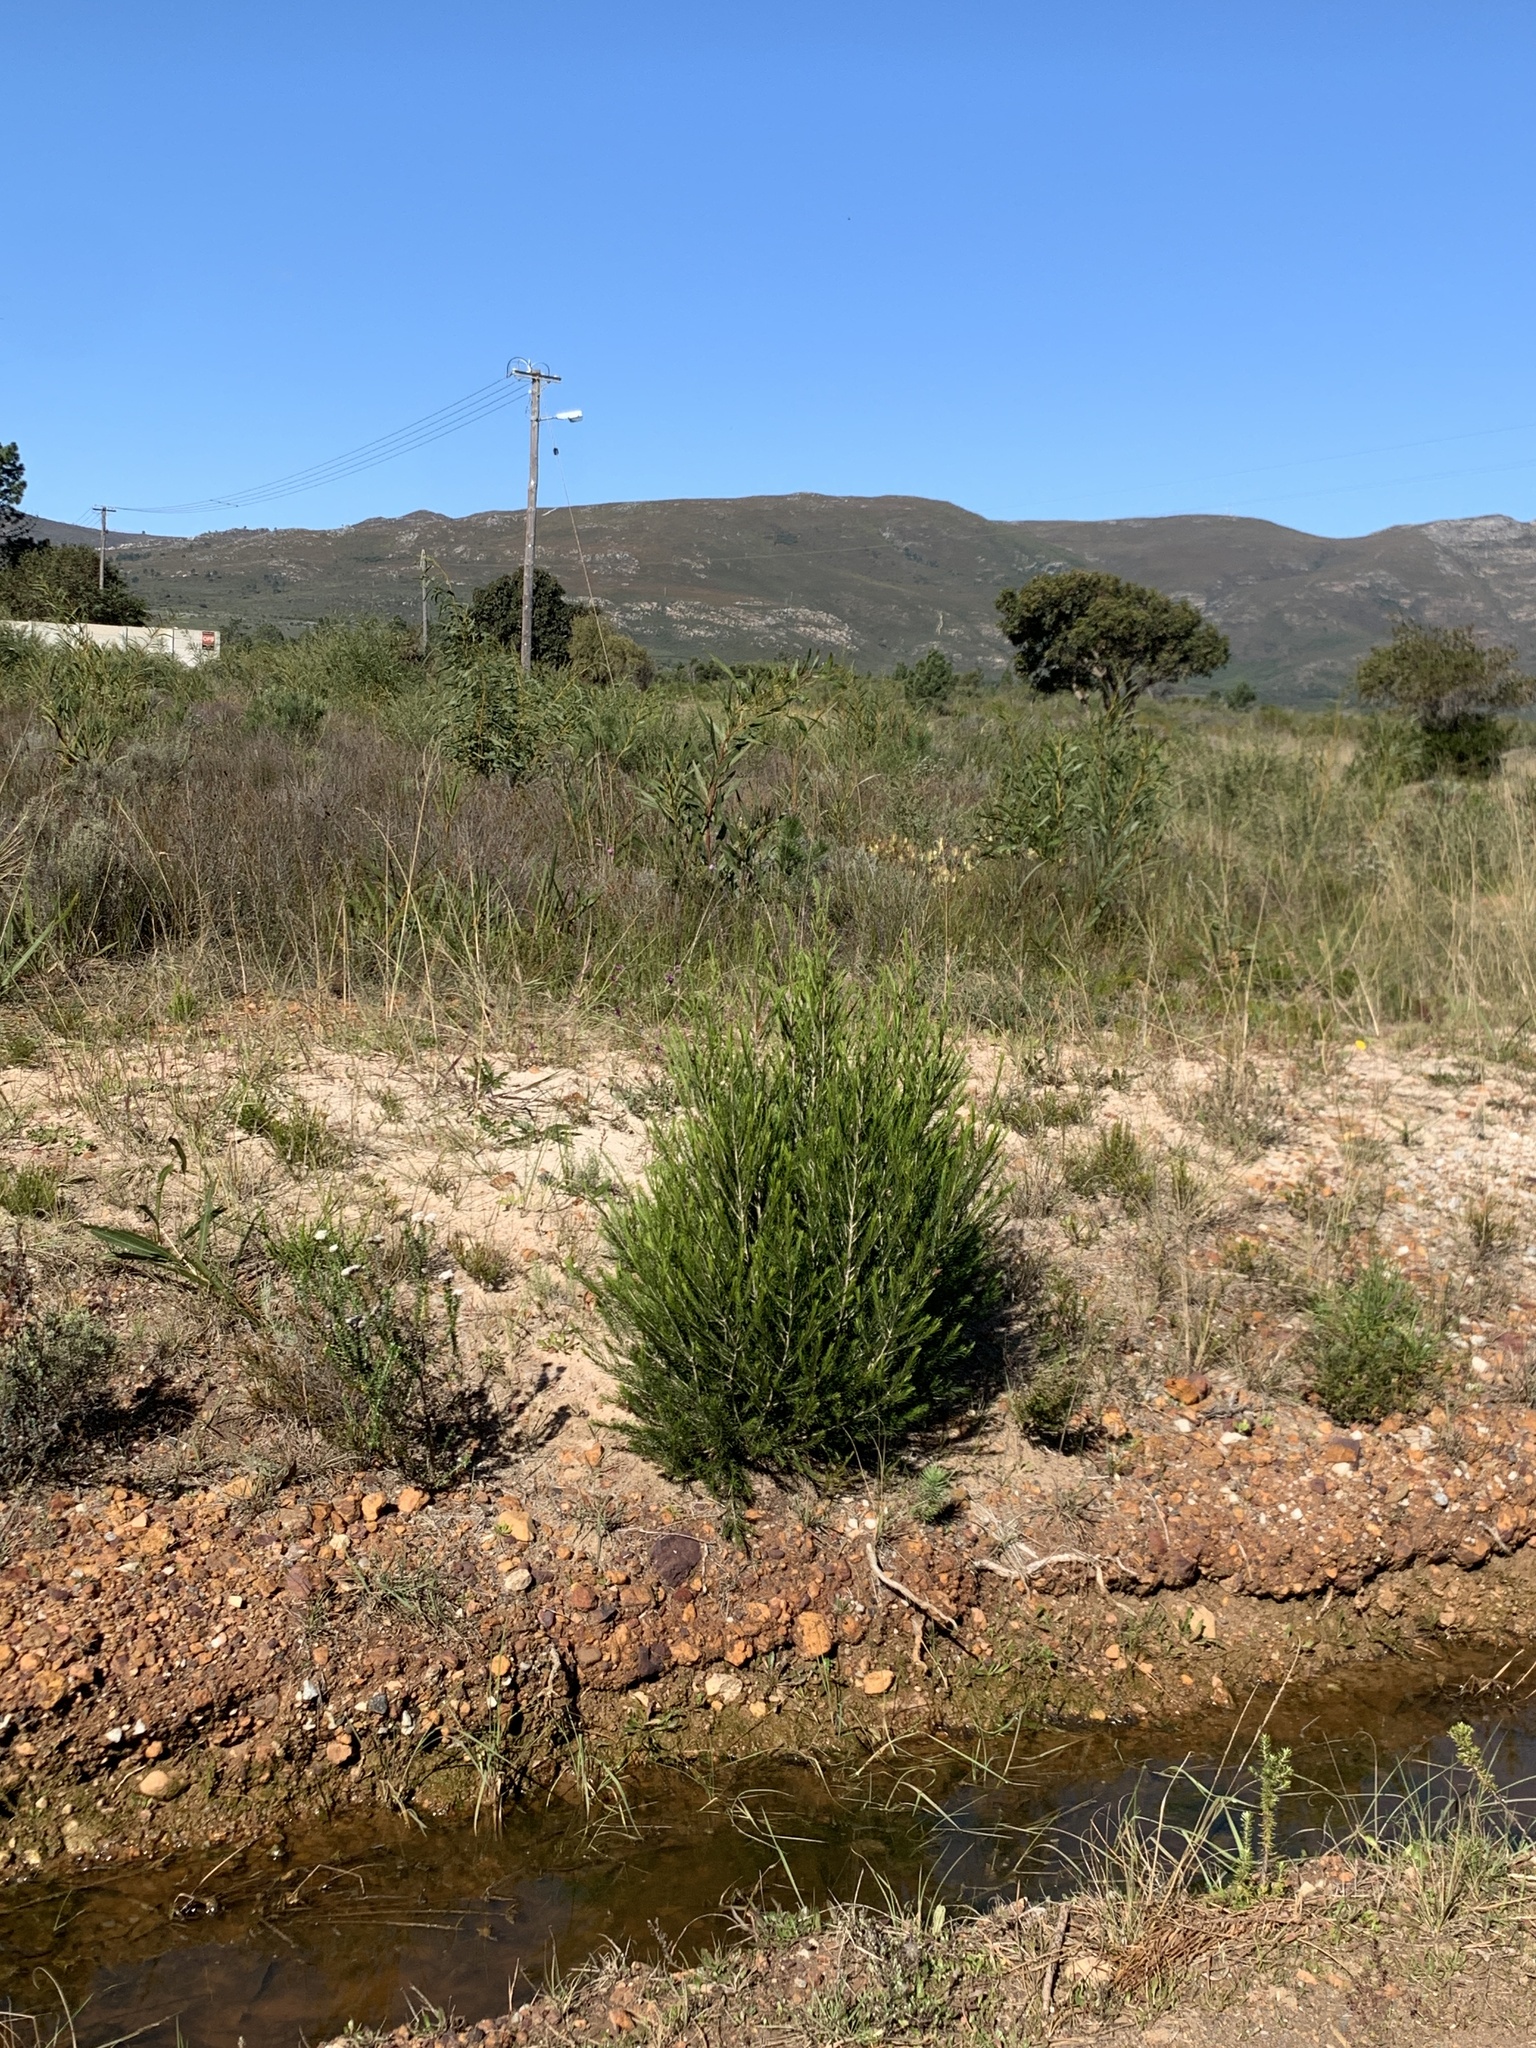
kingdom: Plantae
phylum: Tracheophyta
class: Magnoliopsida
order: Myrtales
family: Myrtaceae
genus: Melaleuca
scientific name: Melaleuca armillaris
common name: Bracelet honey myrtle
